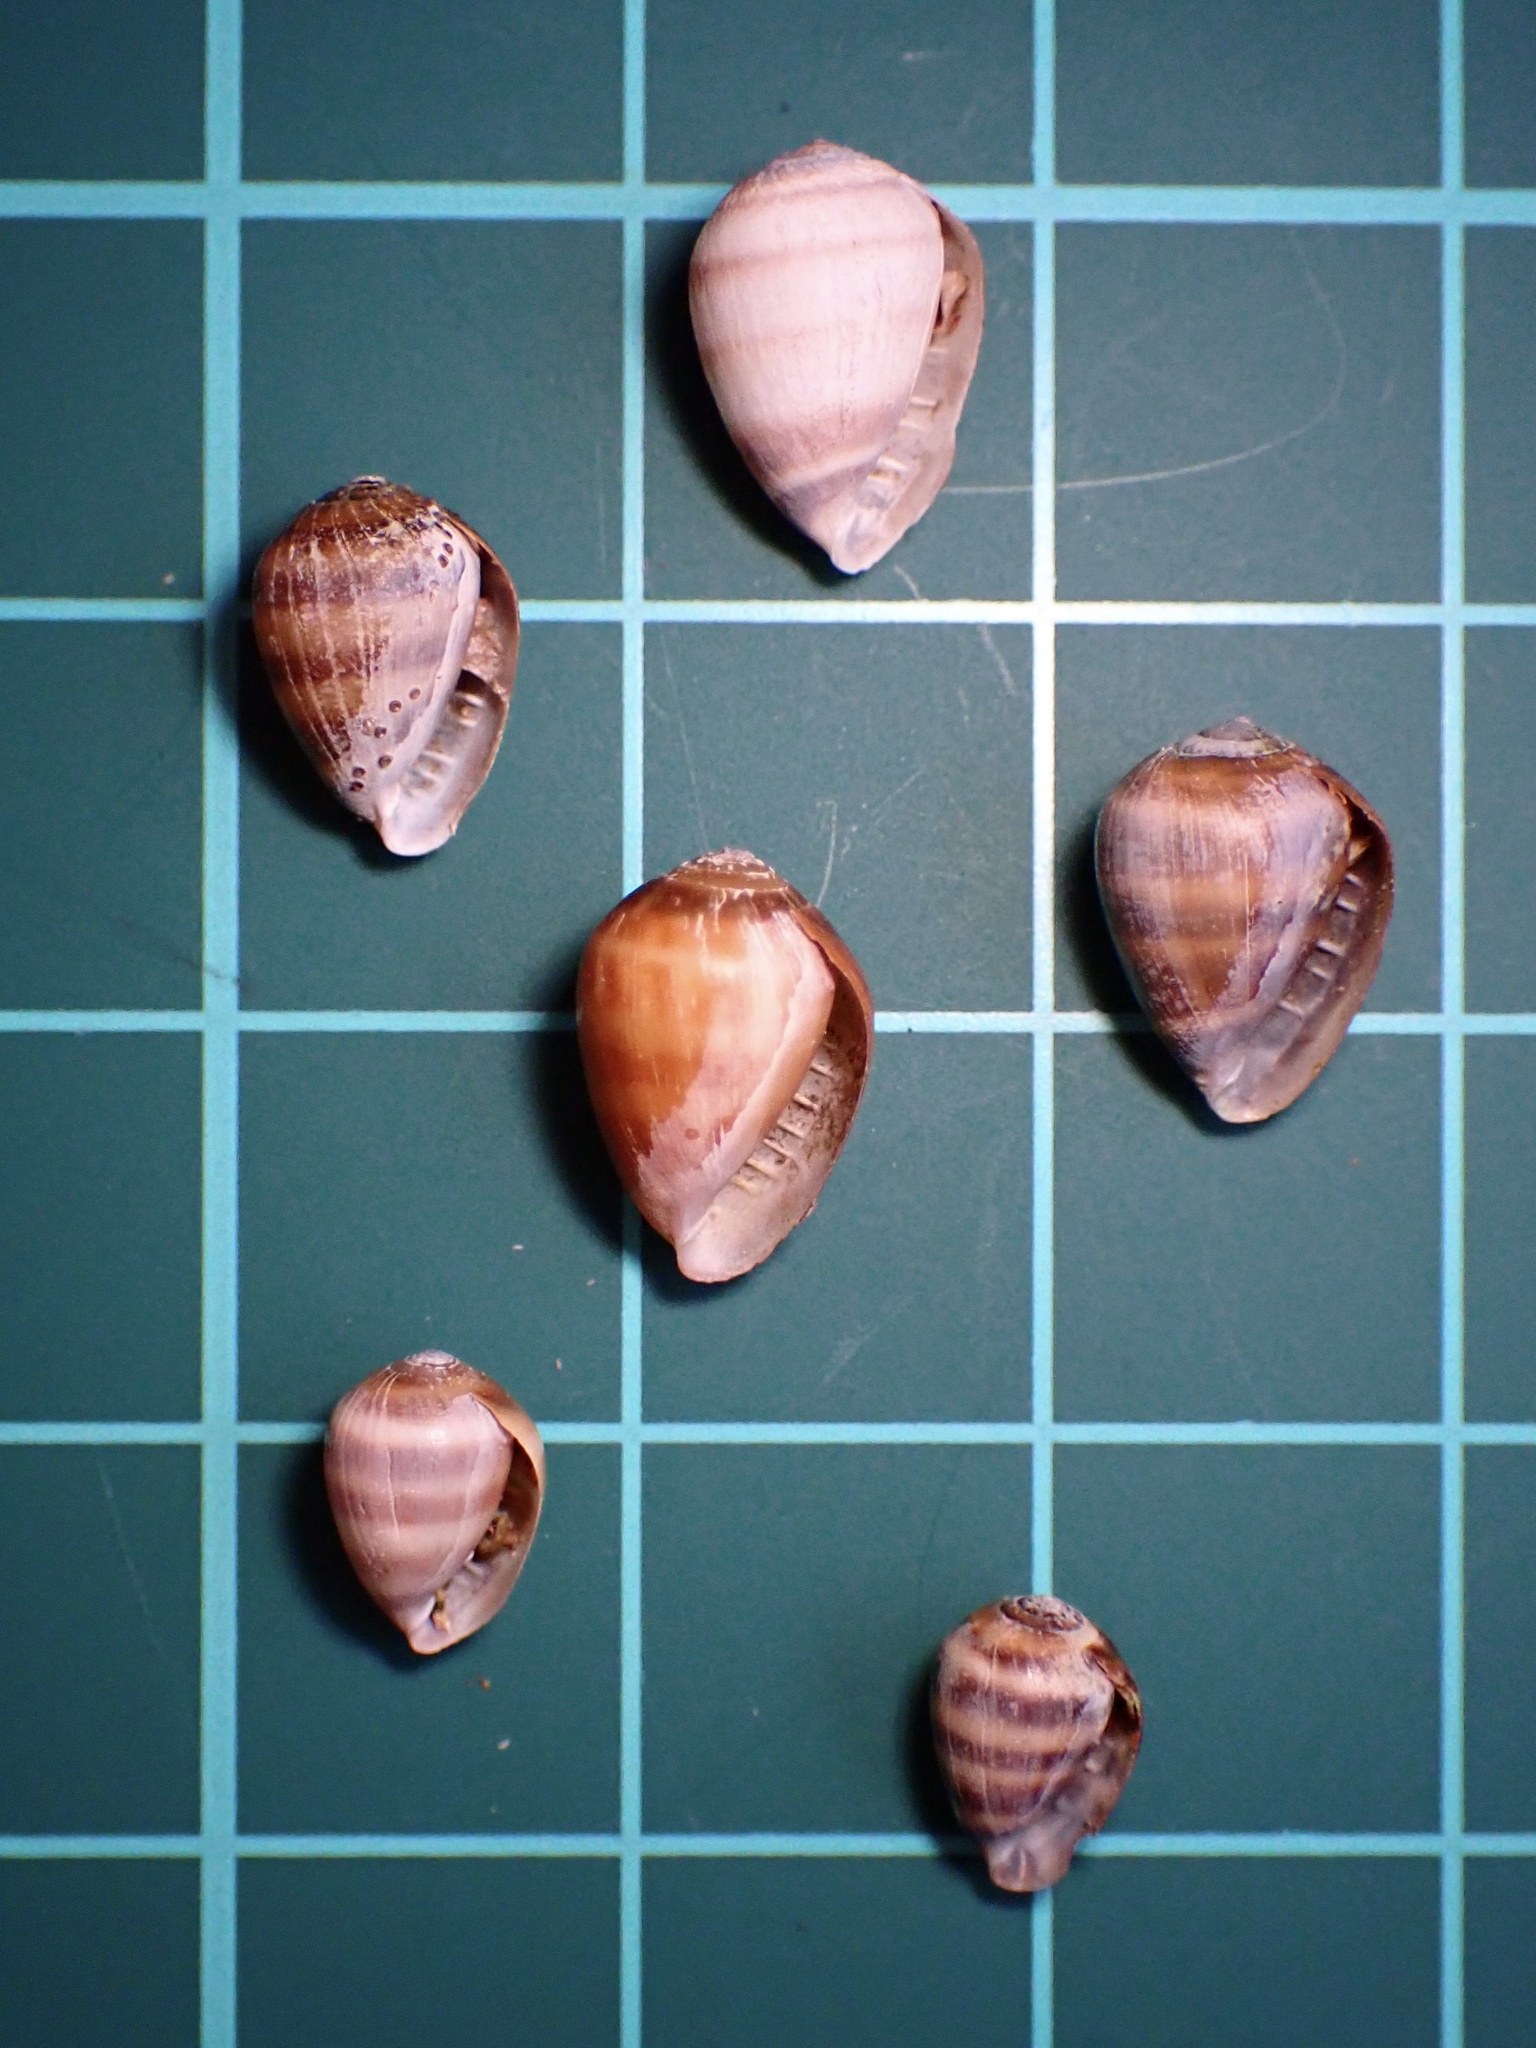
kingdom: Animalia
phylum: Mollusca
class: Gastropoda
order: Ellobiida
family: Ellobiidae
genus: Melampus
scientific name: Melampus olivaceus
